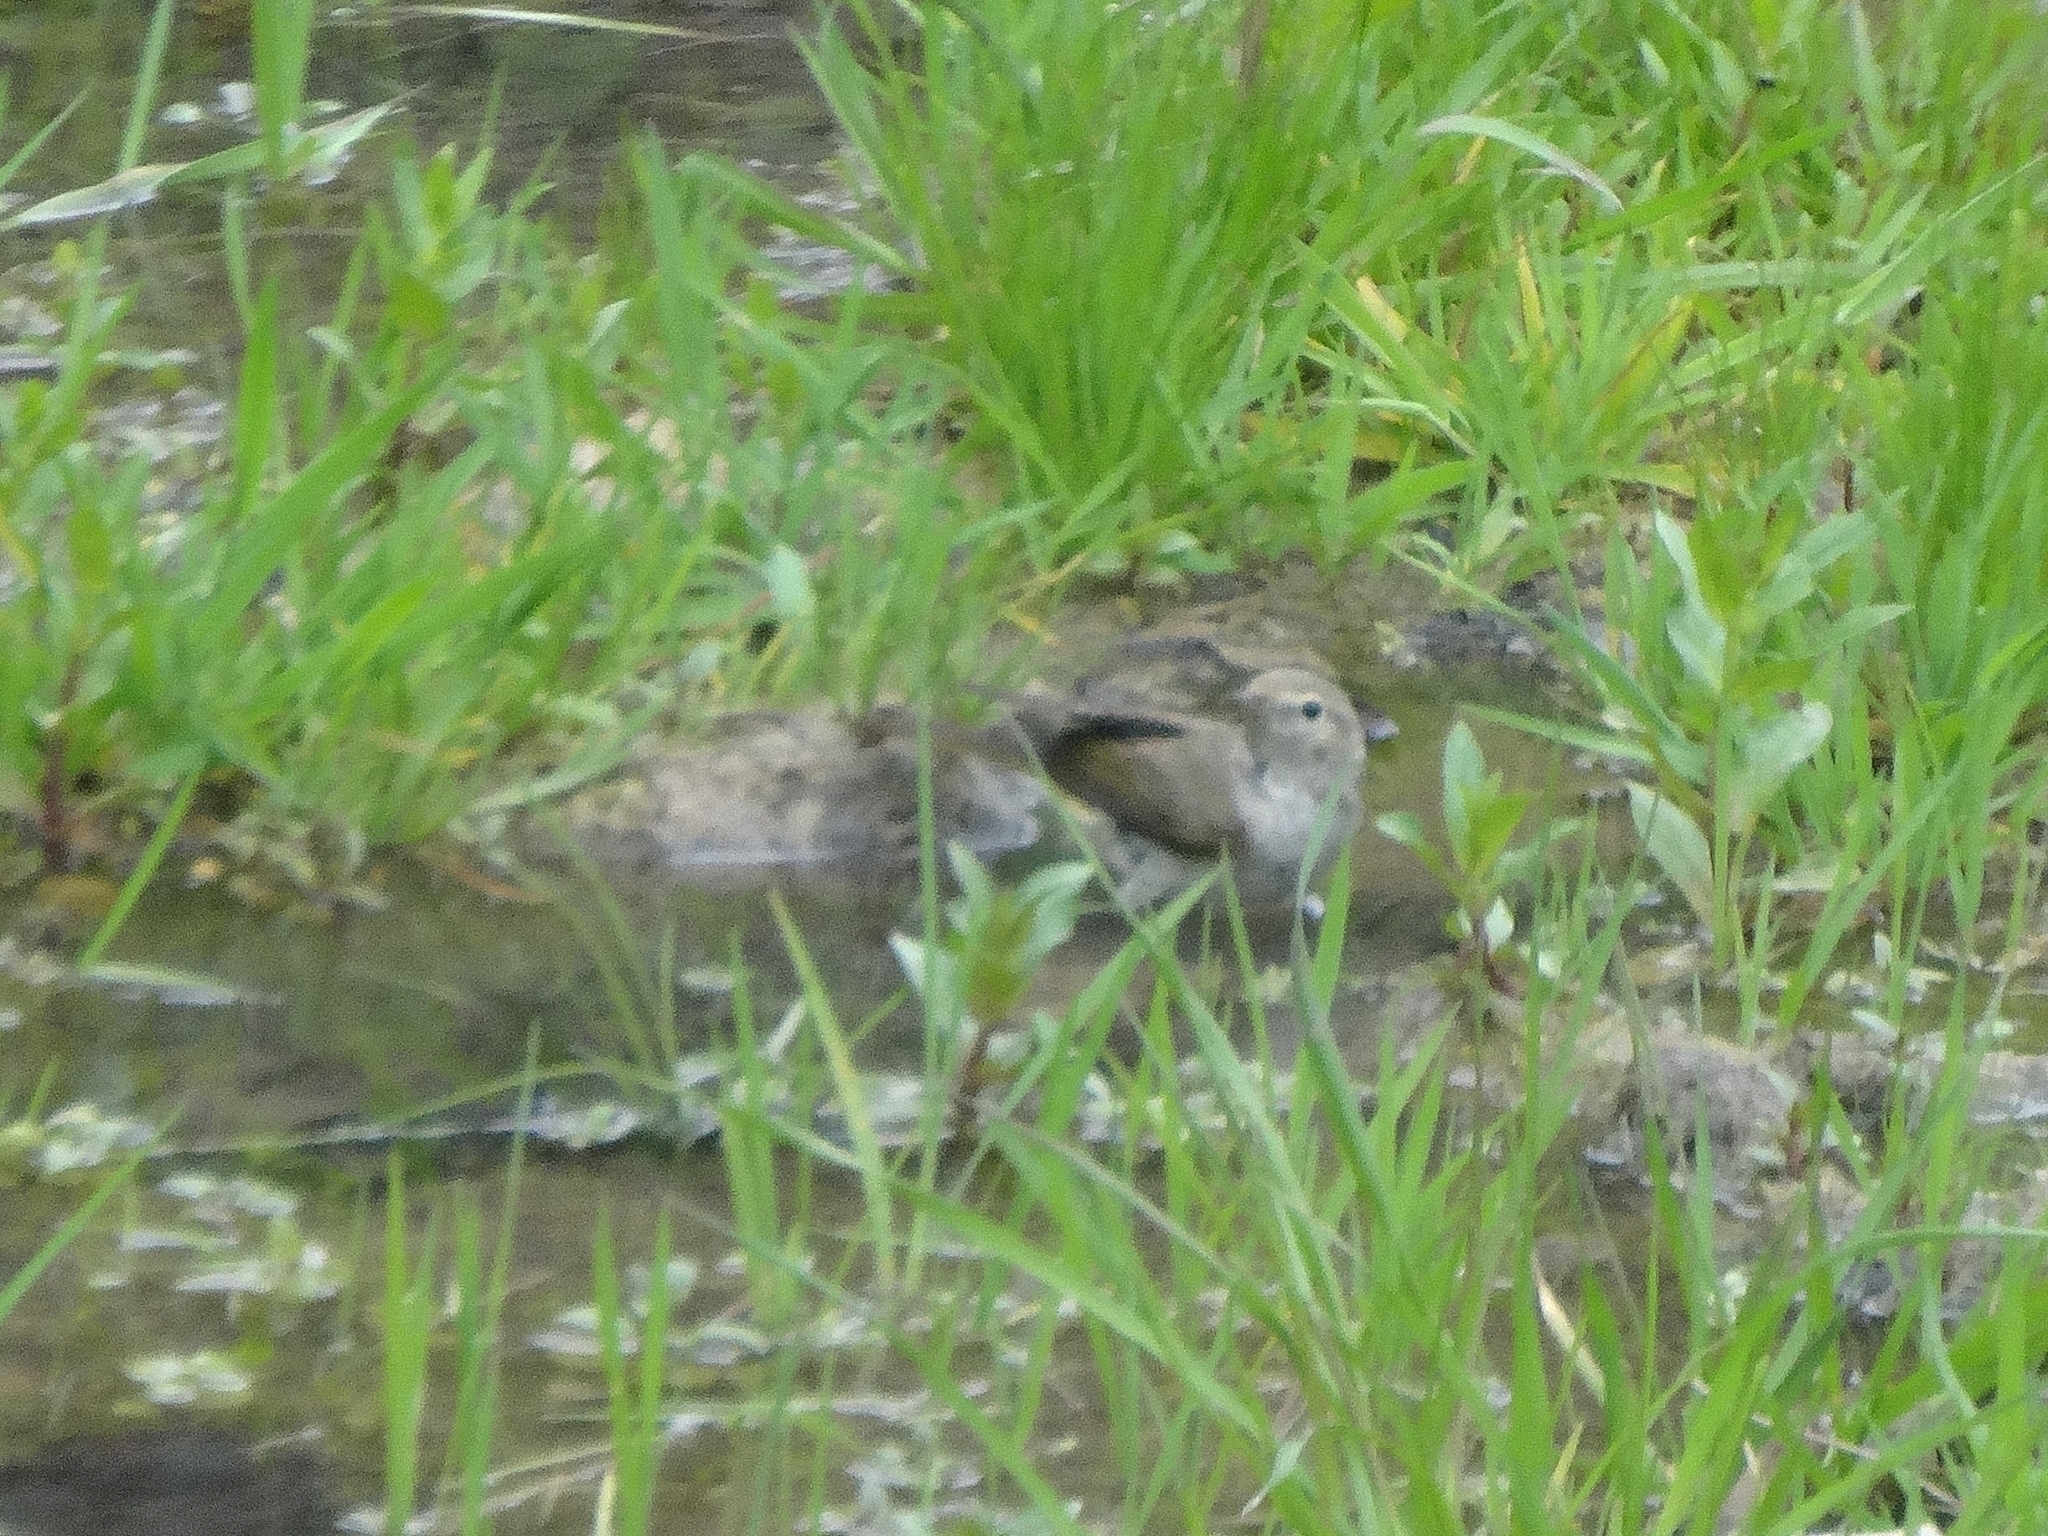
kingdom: Animalia
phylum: Chordata
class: Aves
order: Passeriformes
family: Phylloscopidae
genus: Phylloscopus
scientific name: Phylloscopus orientalis
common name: Eastern bonelli's warbler
